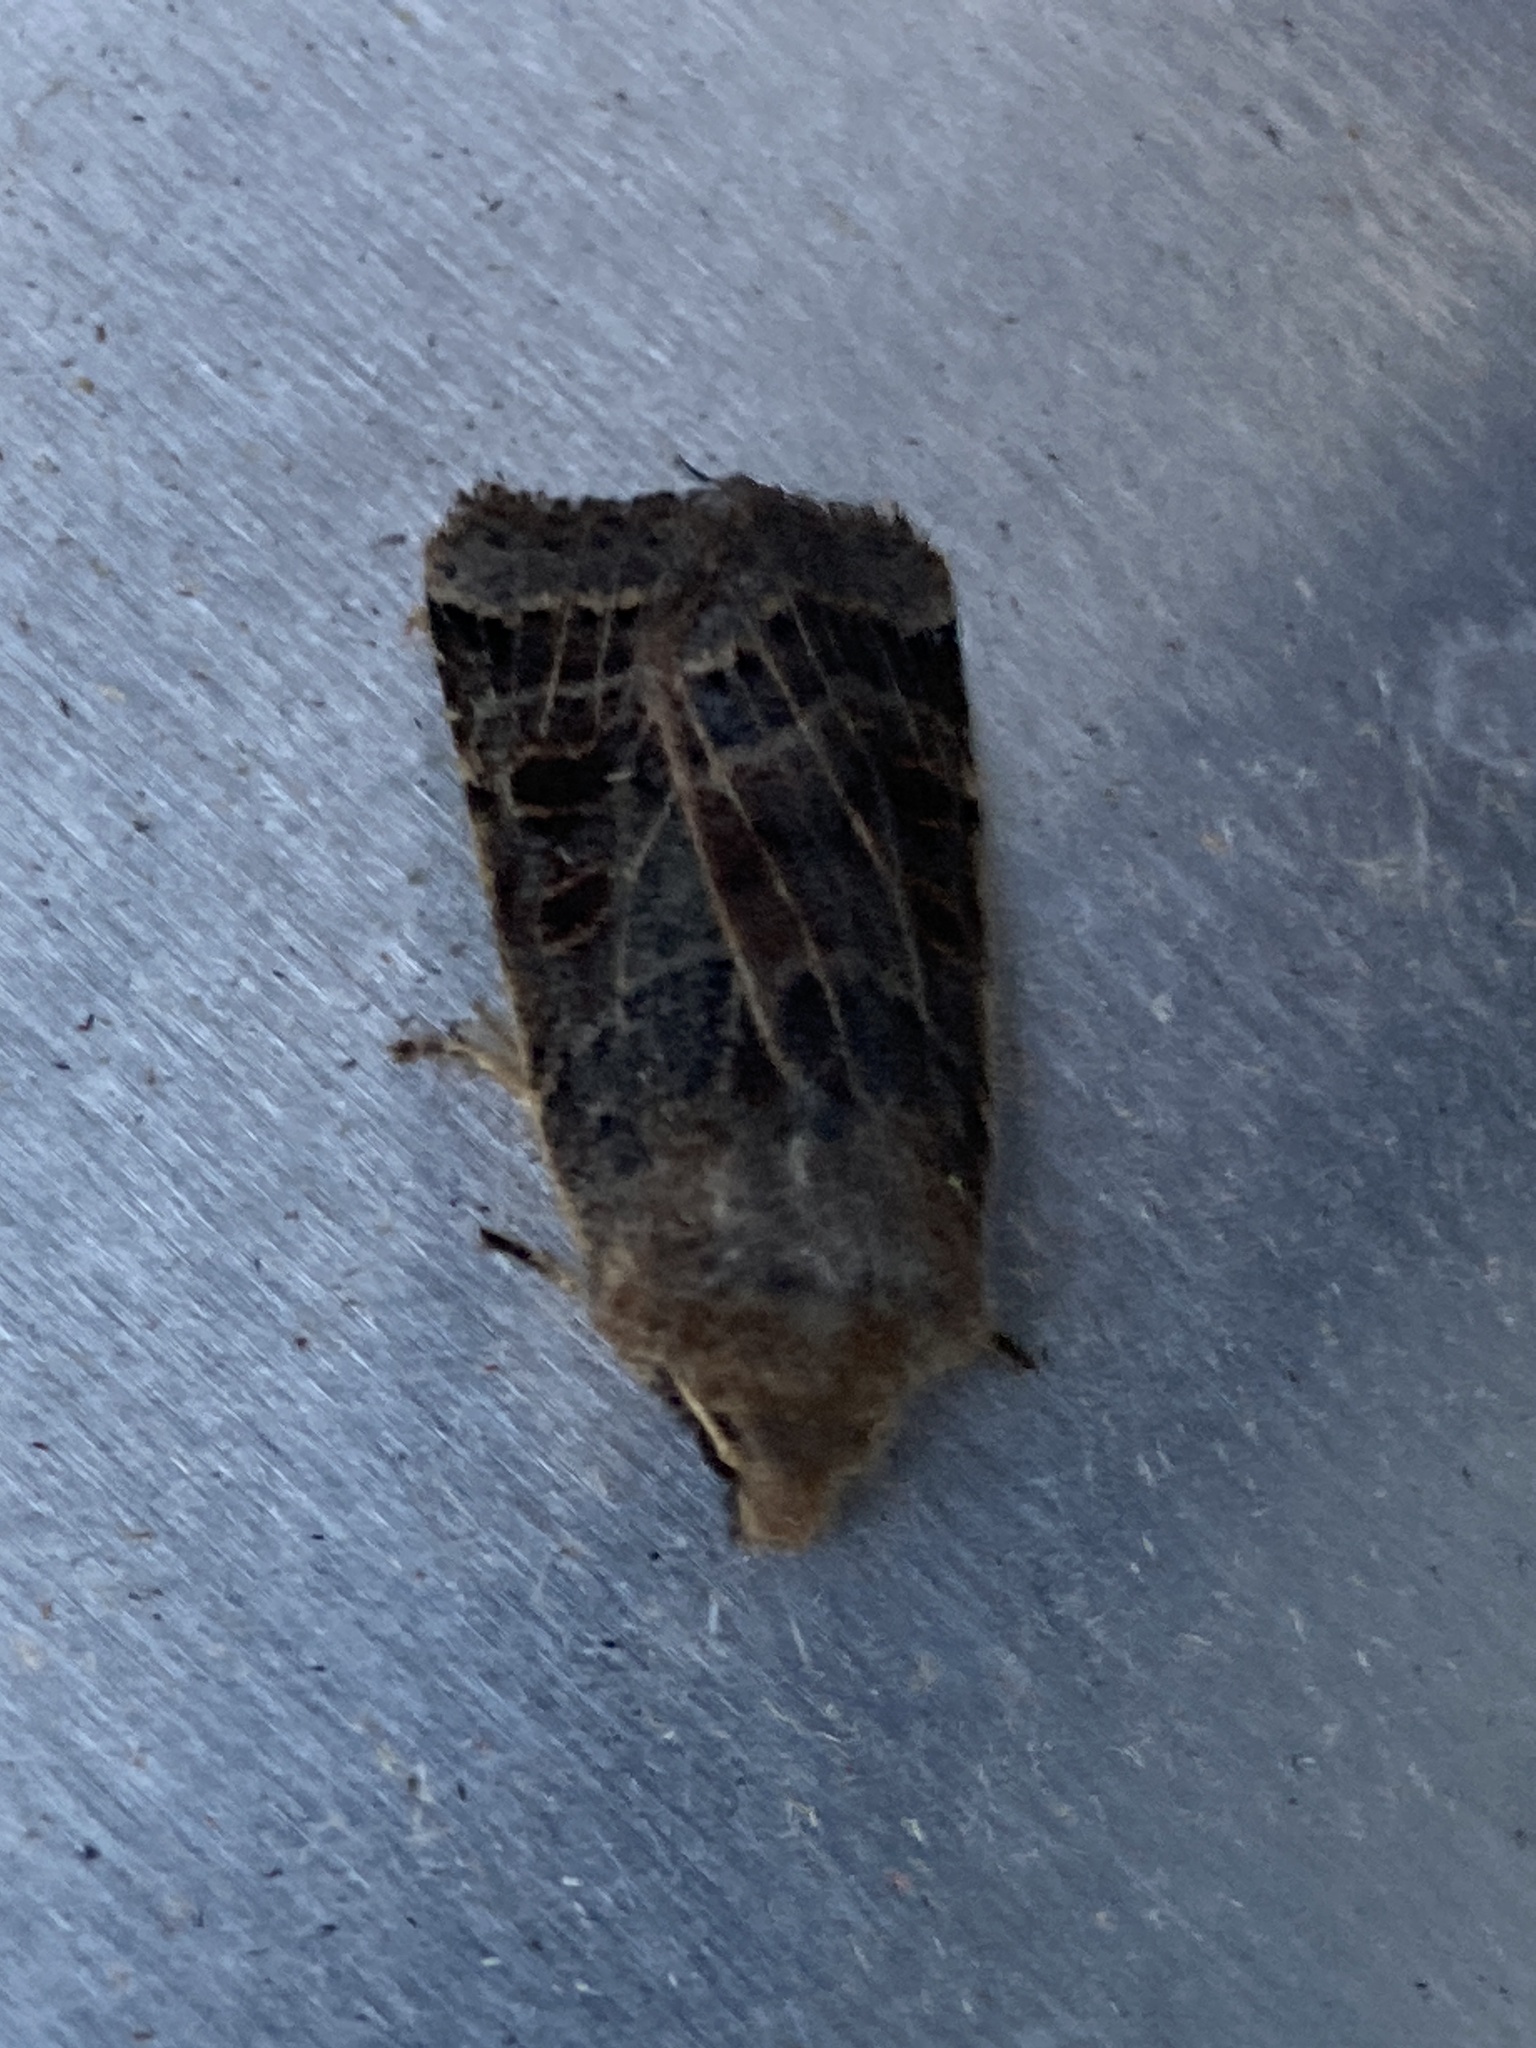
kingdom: Animalia
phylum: Arthropoda
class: Insecta
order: Lepidoptera
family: Noctuidae
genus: Agrochola
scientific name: Agrochola lunosa
